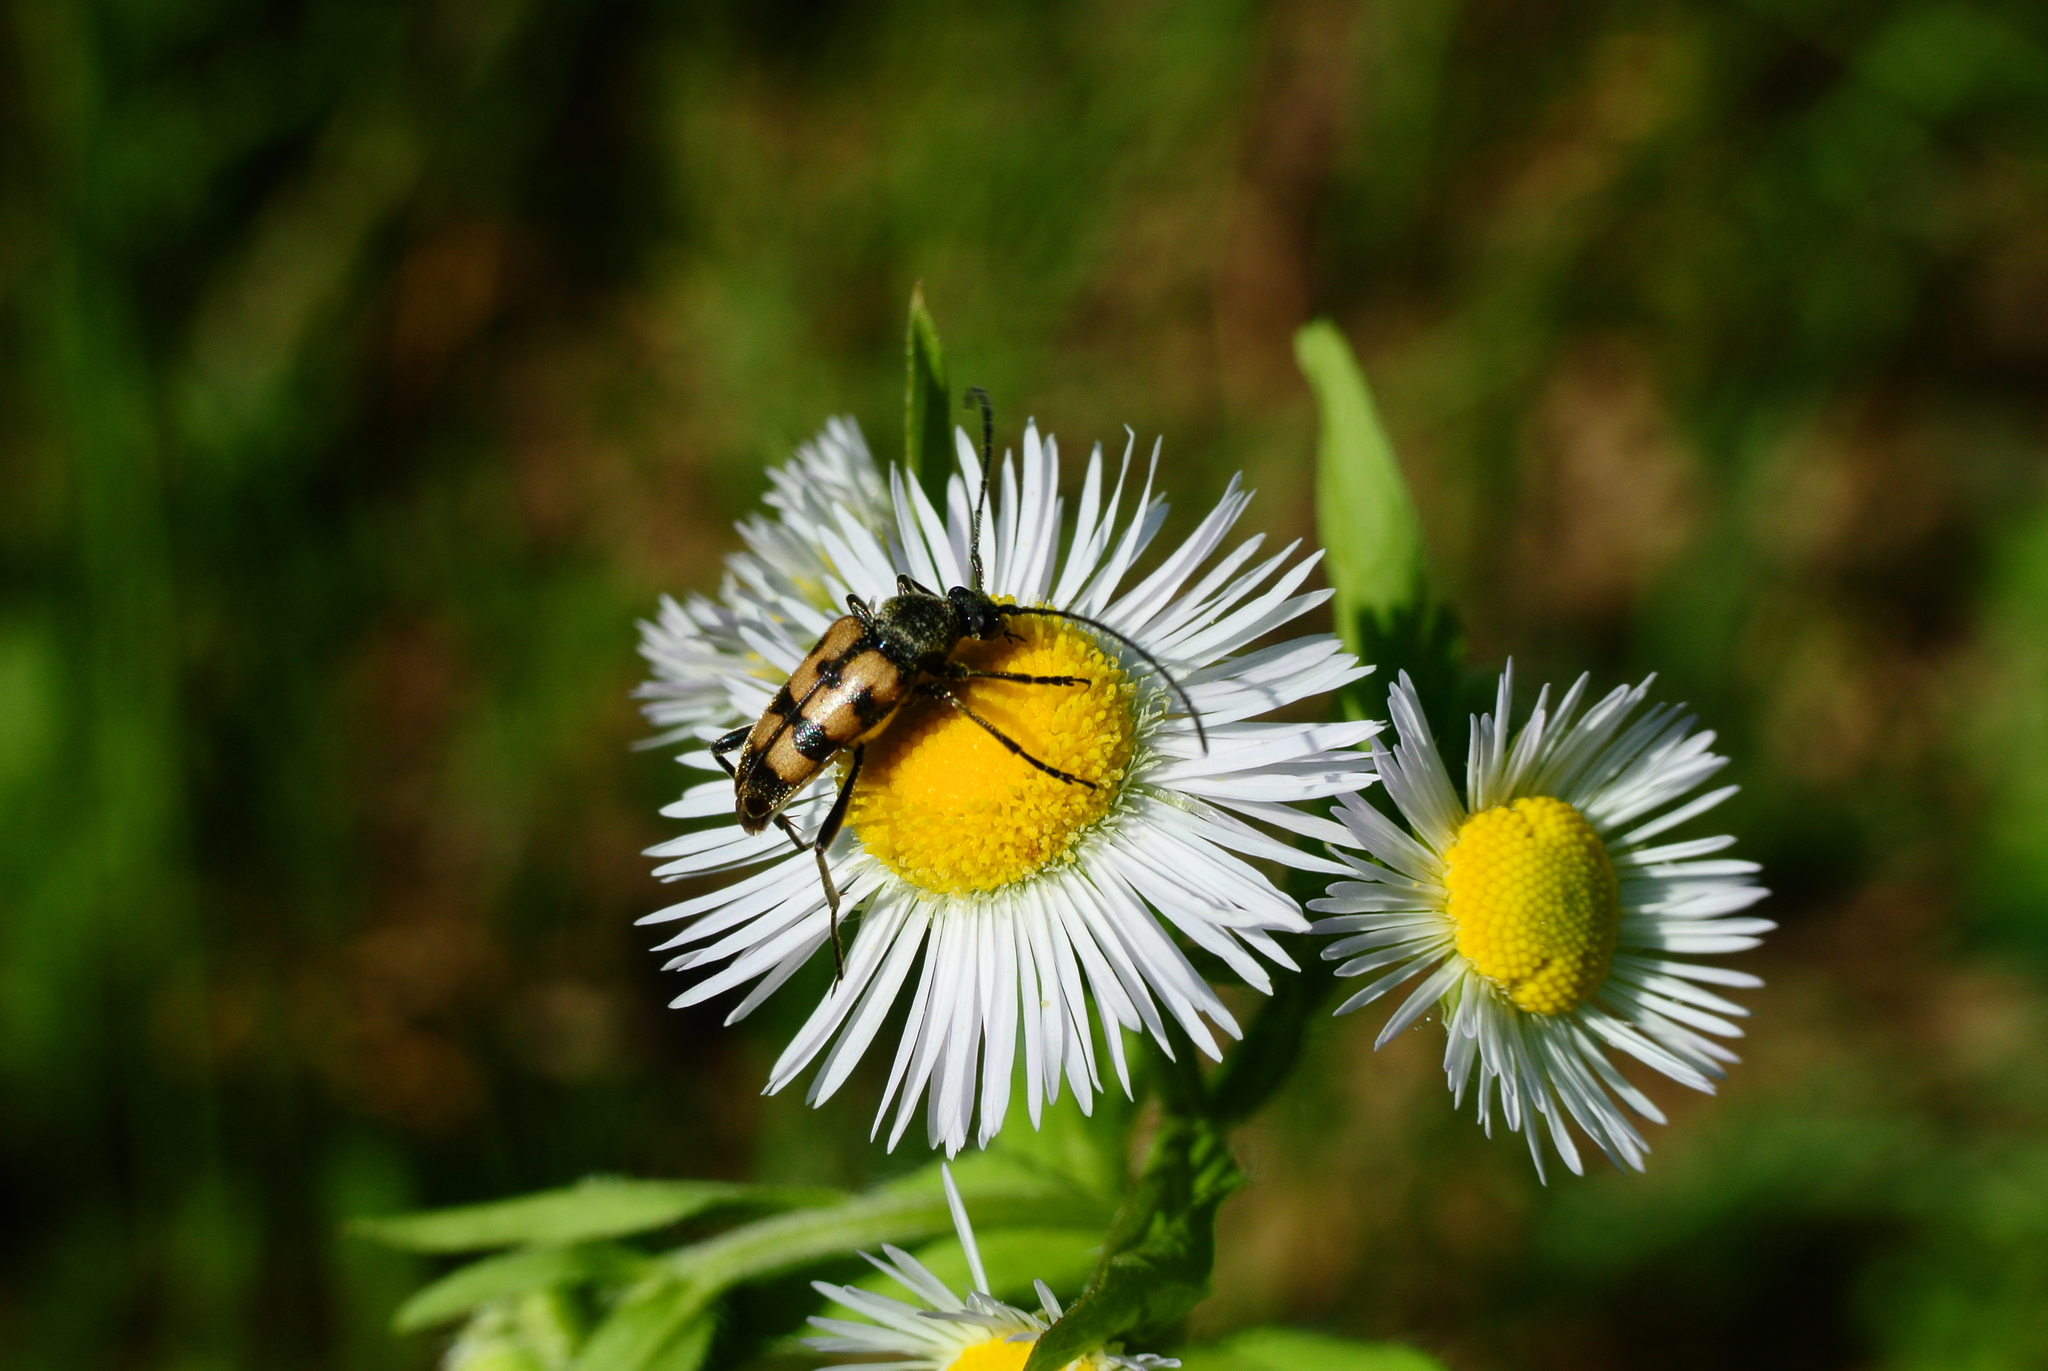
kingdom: Animalia
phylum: Arthropoda
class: Insecta
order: Coleoptera
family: Cerambycidae
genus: Pachytodes
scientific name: Pachytodes
